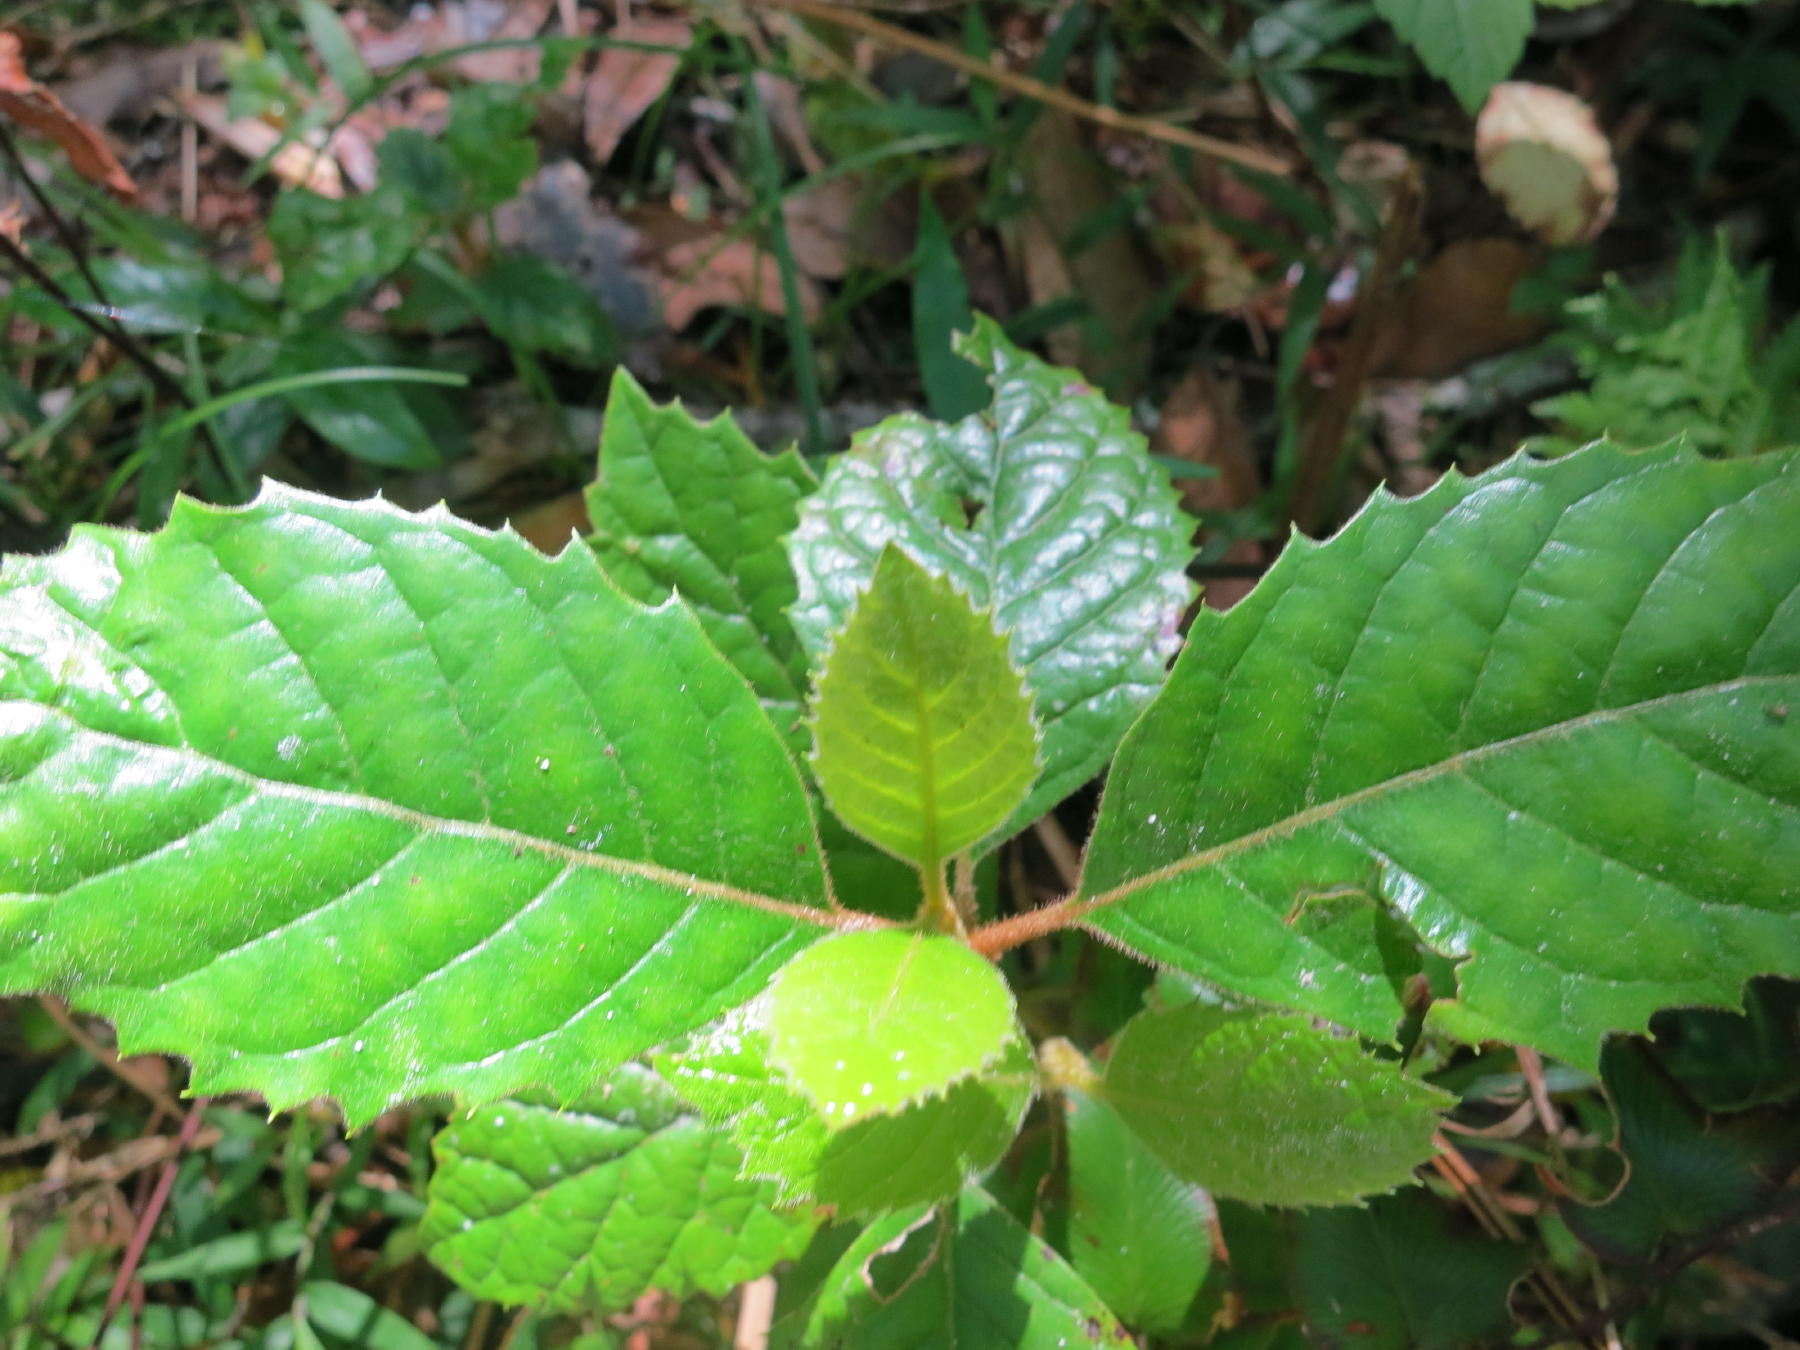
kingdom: Plantae
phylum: Tracheophyta
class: Magnoliopsida
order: Cornales
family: Curtisiaceae
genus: Curtisia
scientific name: Curtisia dentata
